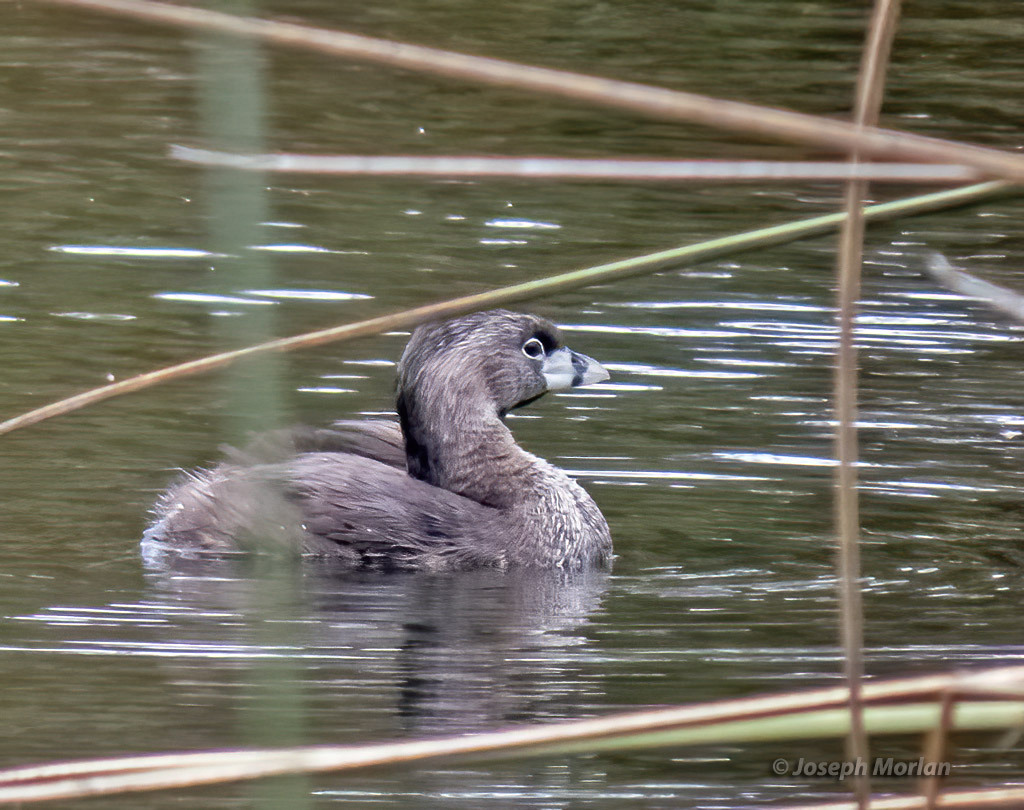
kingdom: Animalia
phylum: Chordata
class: Aves
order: Podicipediformes
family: Podicipedidae
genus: Podilymbus
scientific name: Podilymbus podiceps
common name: Pied-billed grebe
